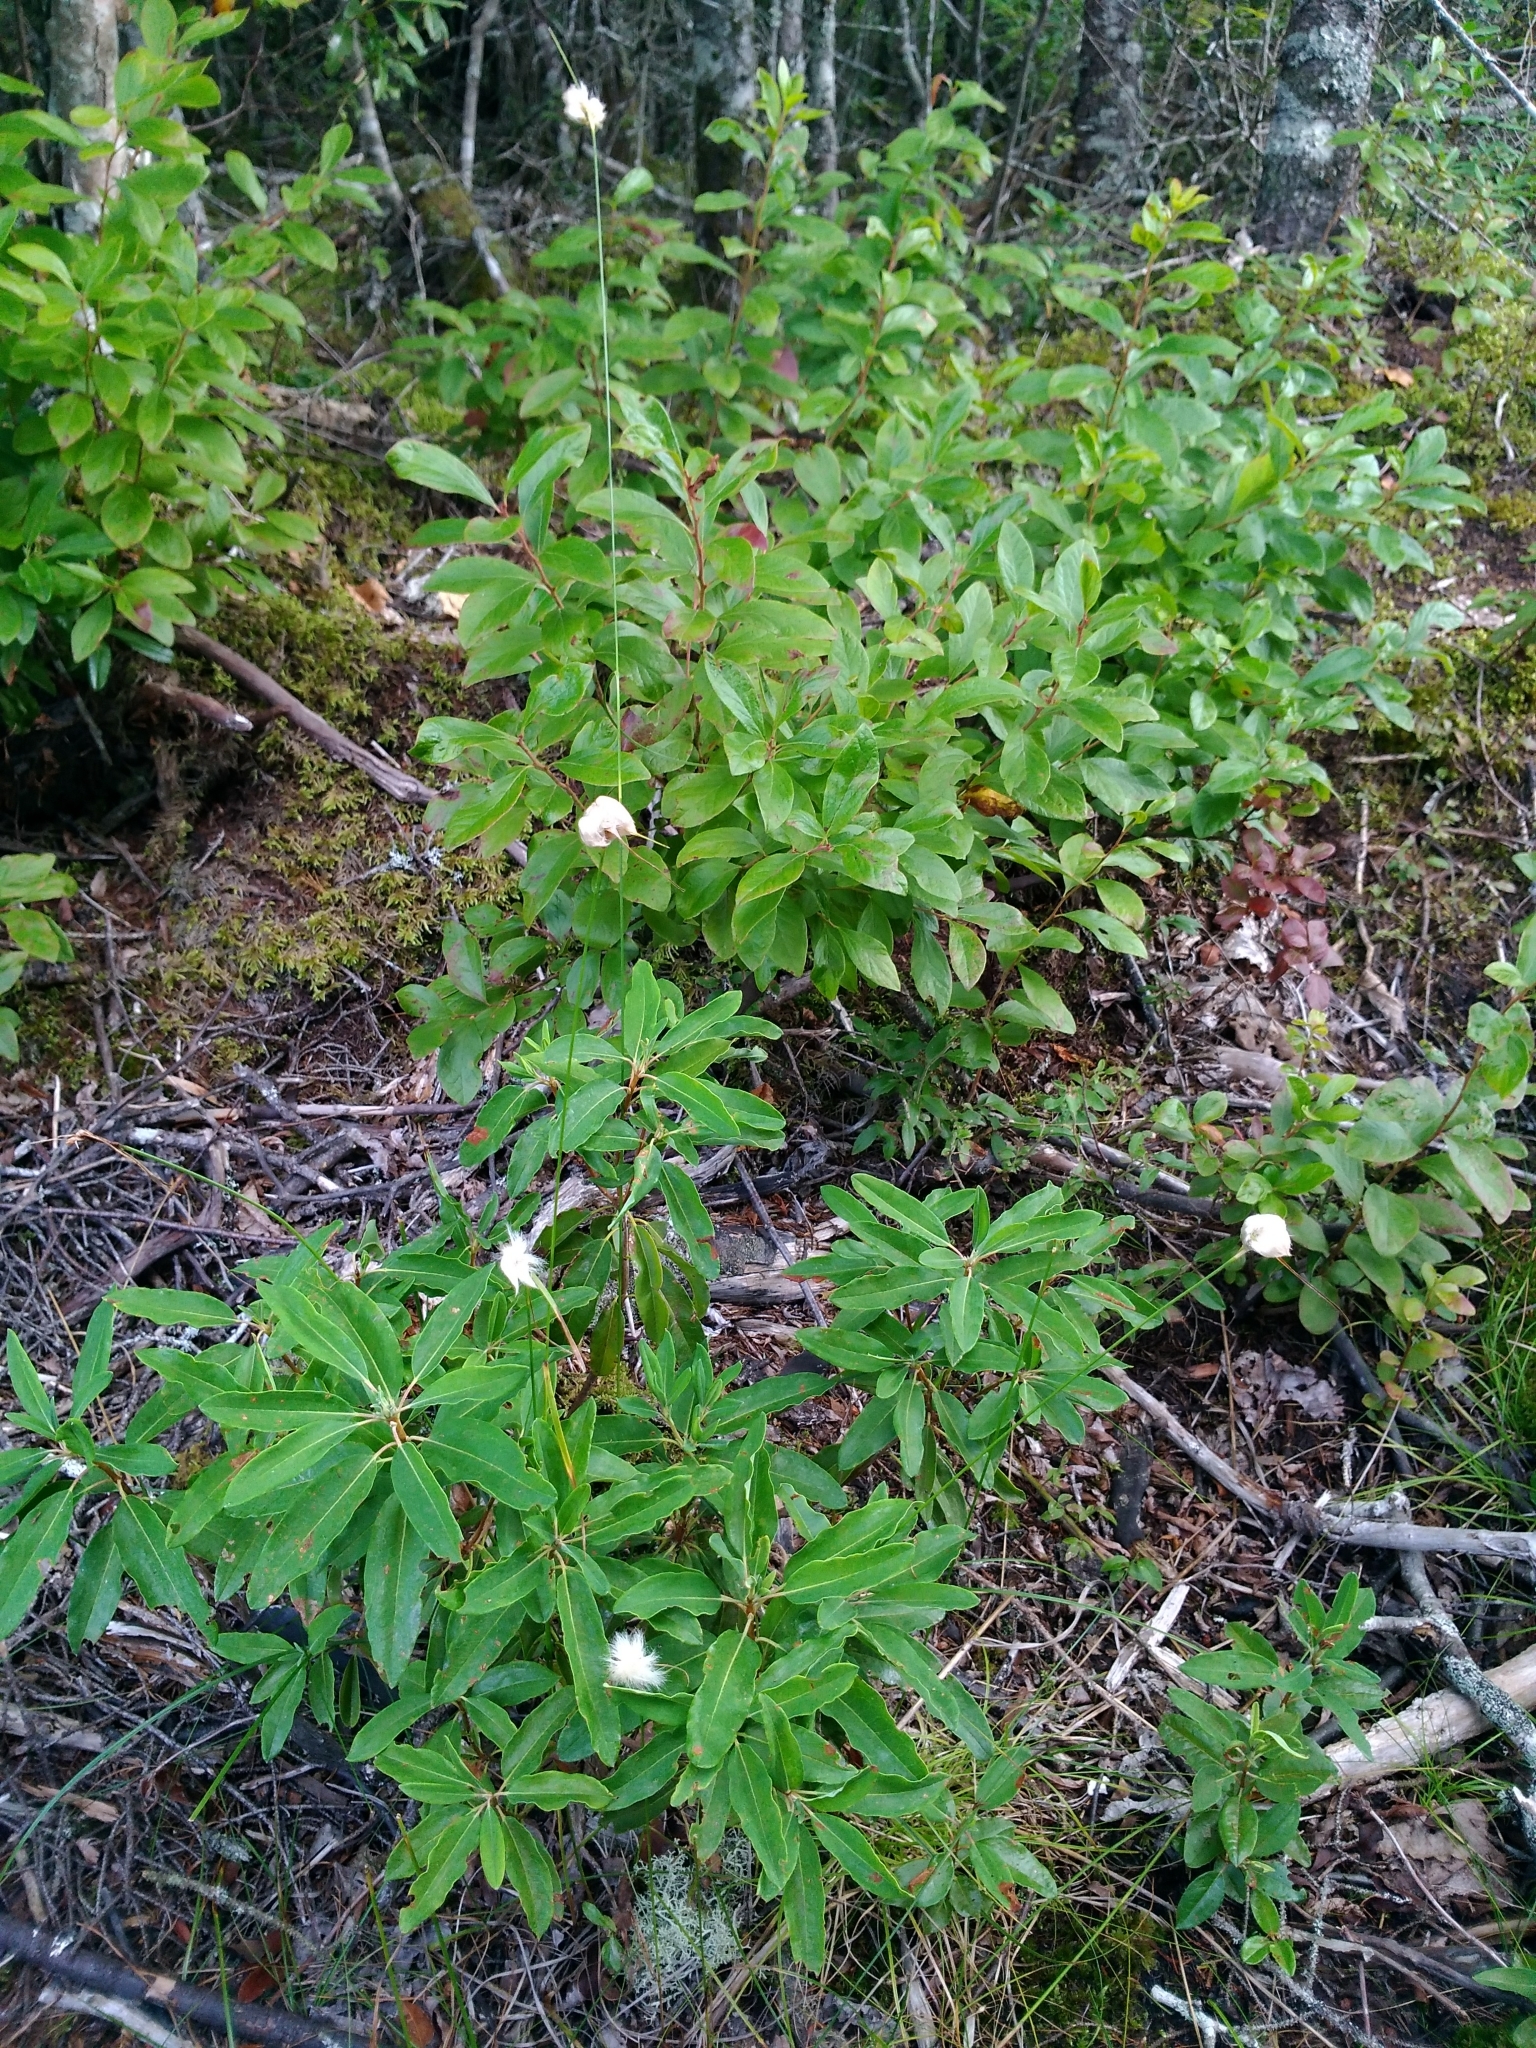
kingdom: Plantae
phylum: Tracheophyta
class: Liliopsida
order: Poales
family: Cyperaceae
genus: Eriophorum
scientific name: Eriophorum virginicum
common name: Tawny cottongrass
